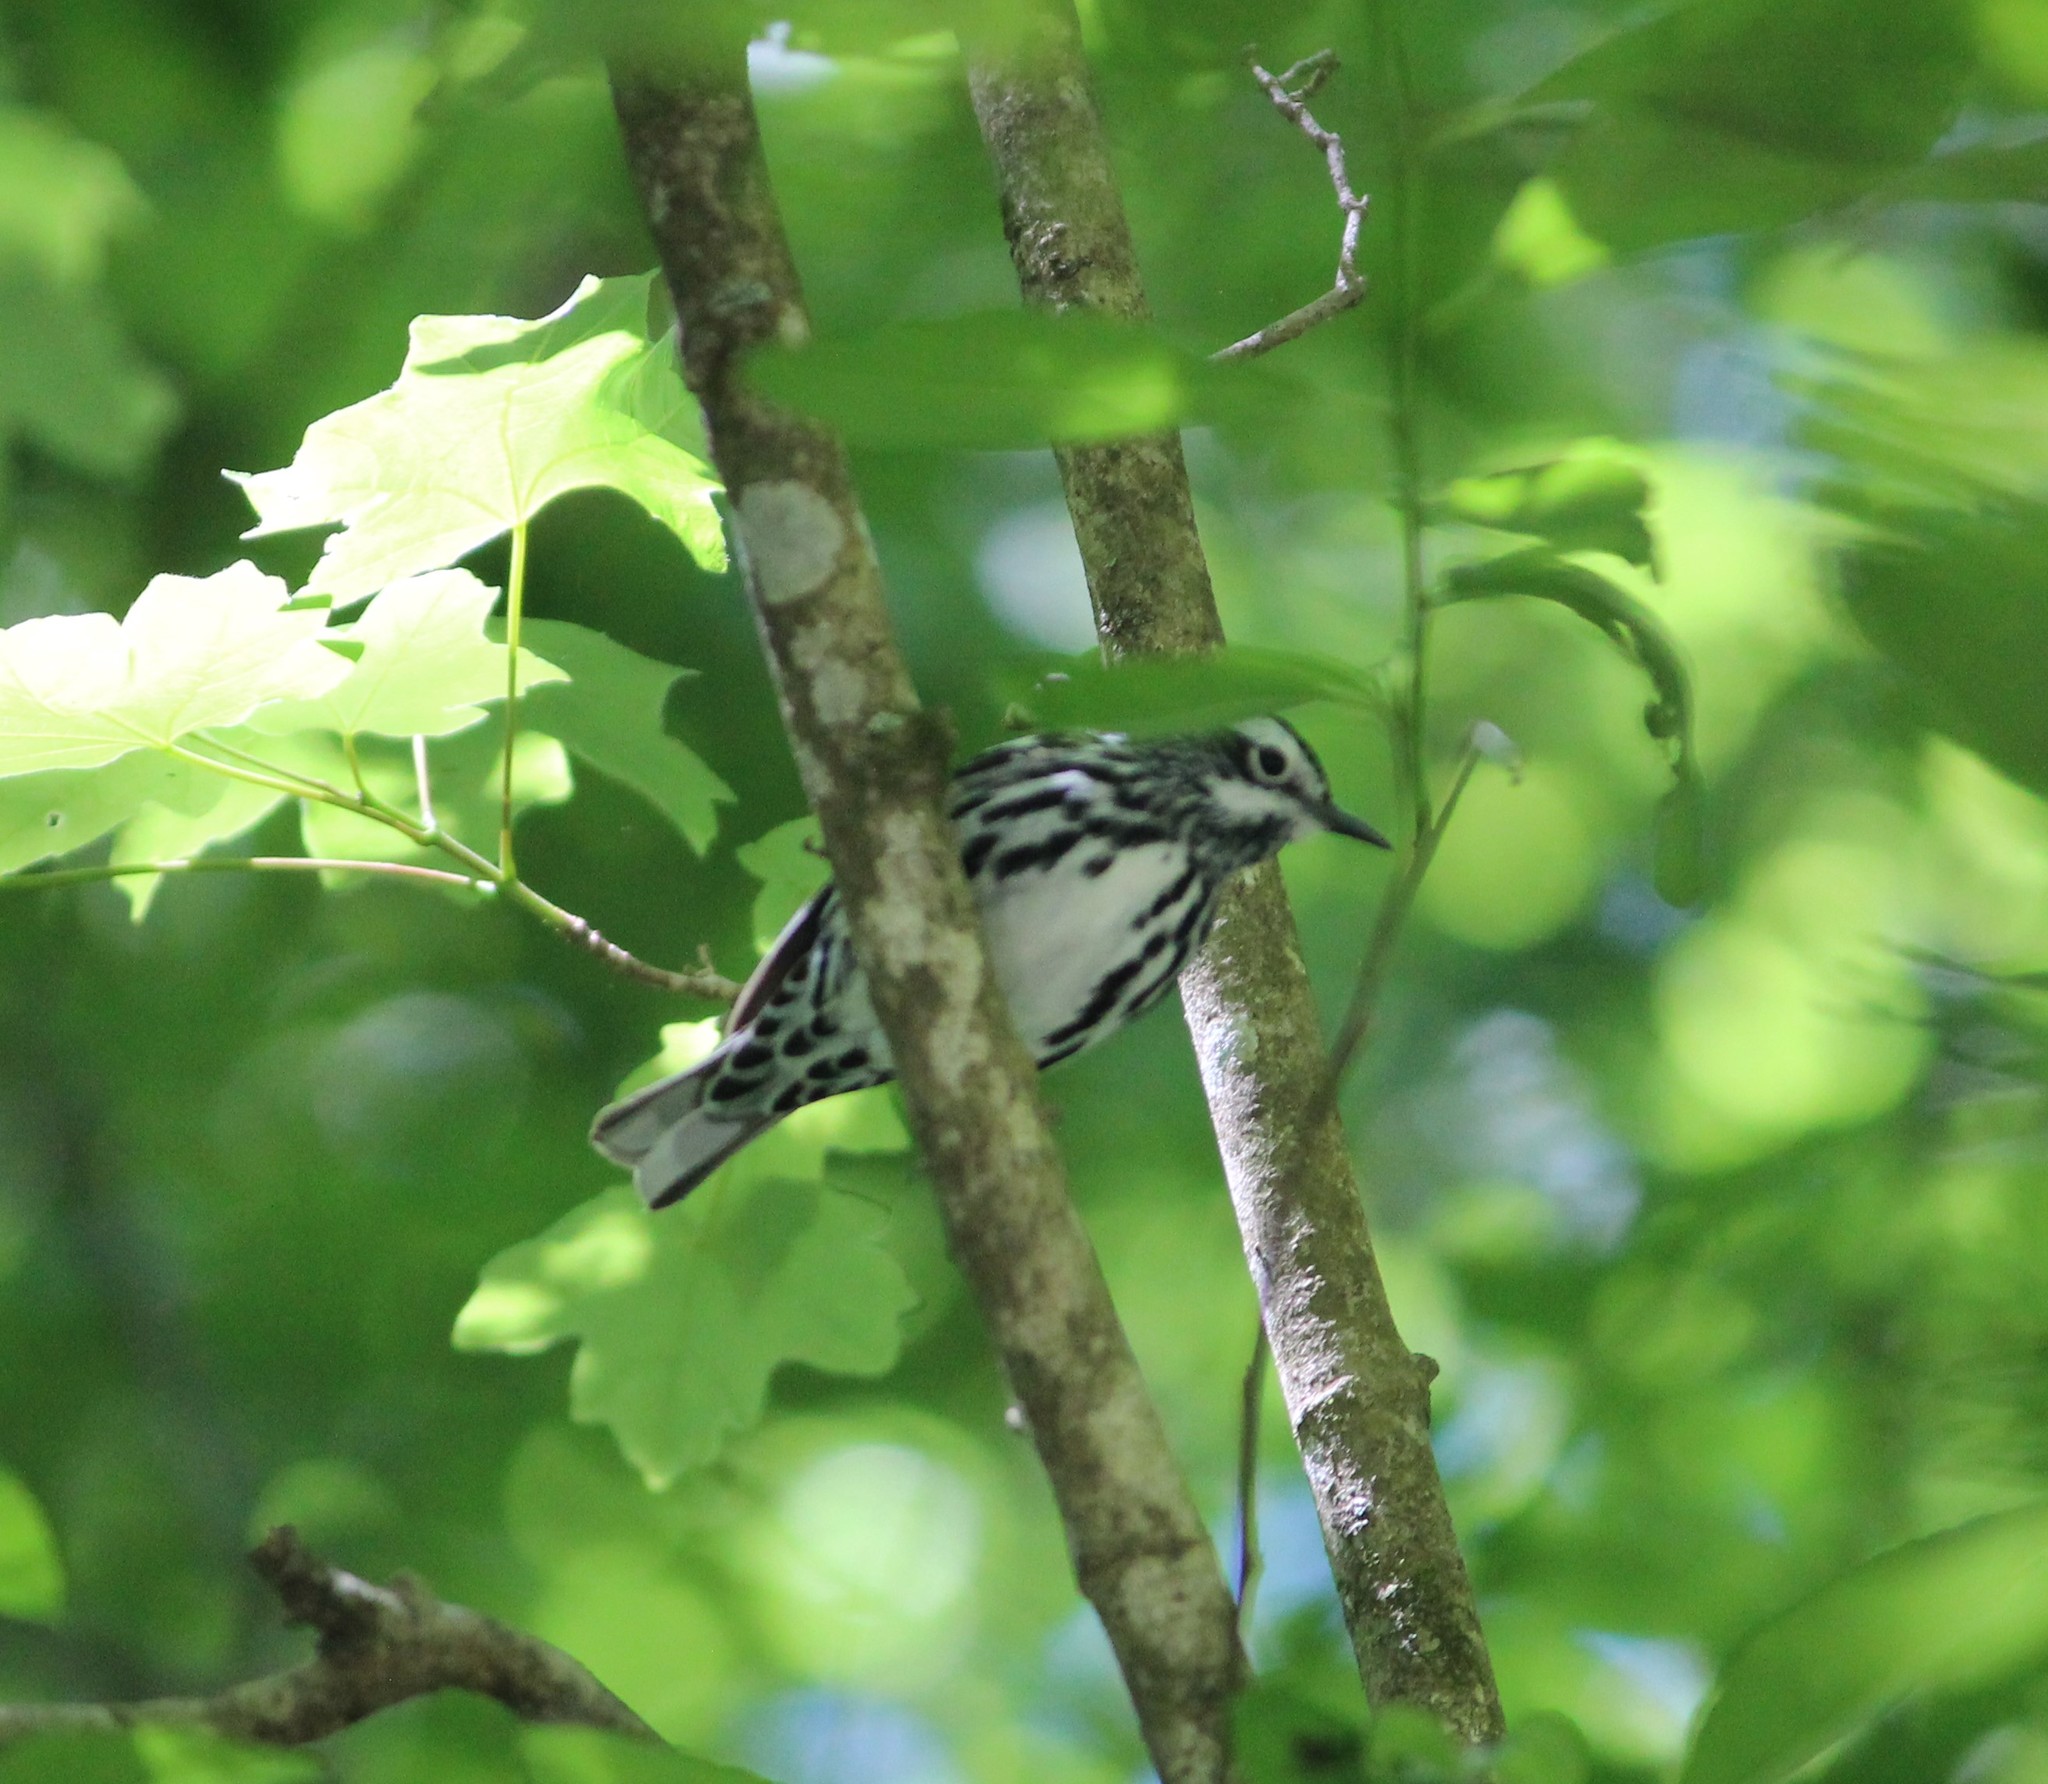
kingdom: Animalia
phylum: Chordata
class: Aves
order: Passeriformes
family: Parulidae
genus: Mniotilta
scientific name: Mniotilta varia
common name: Black-and-white warbler
